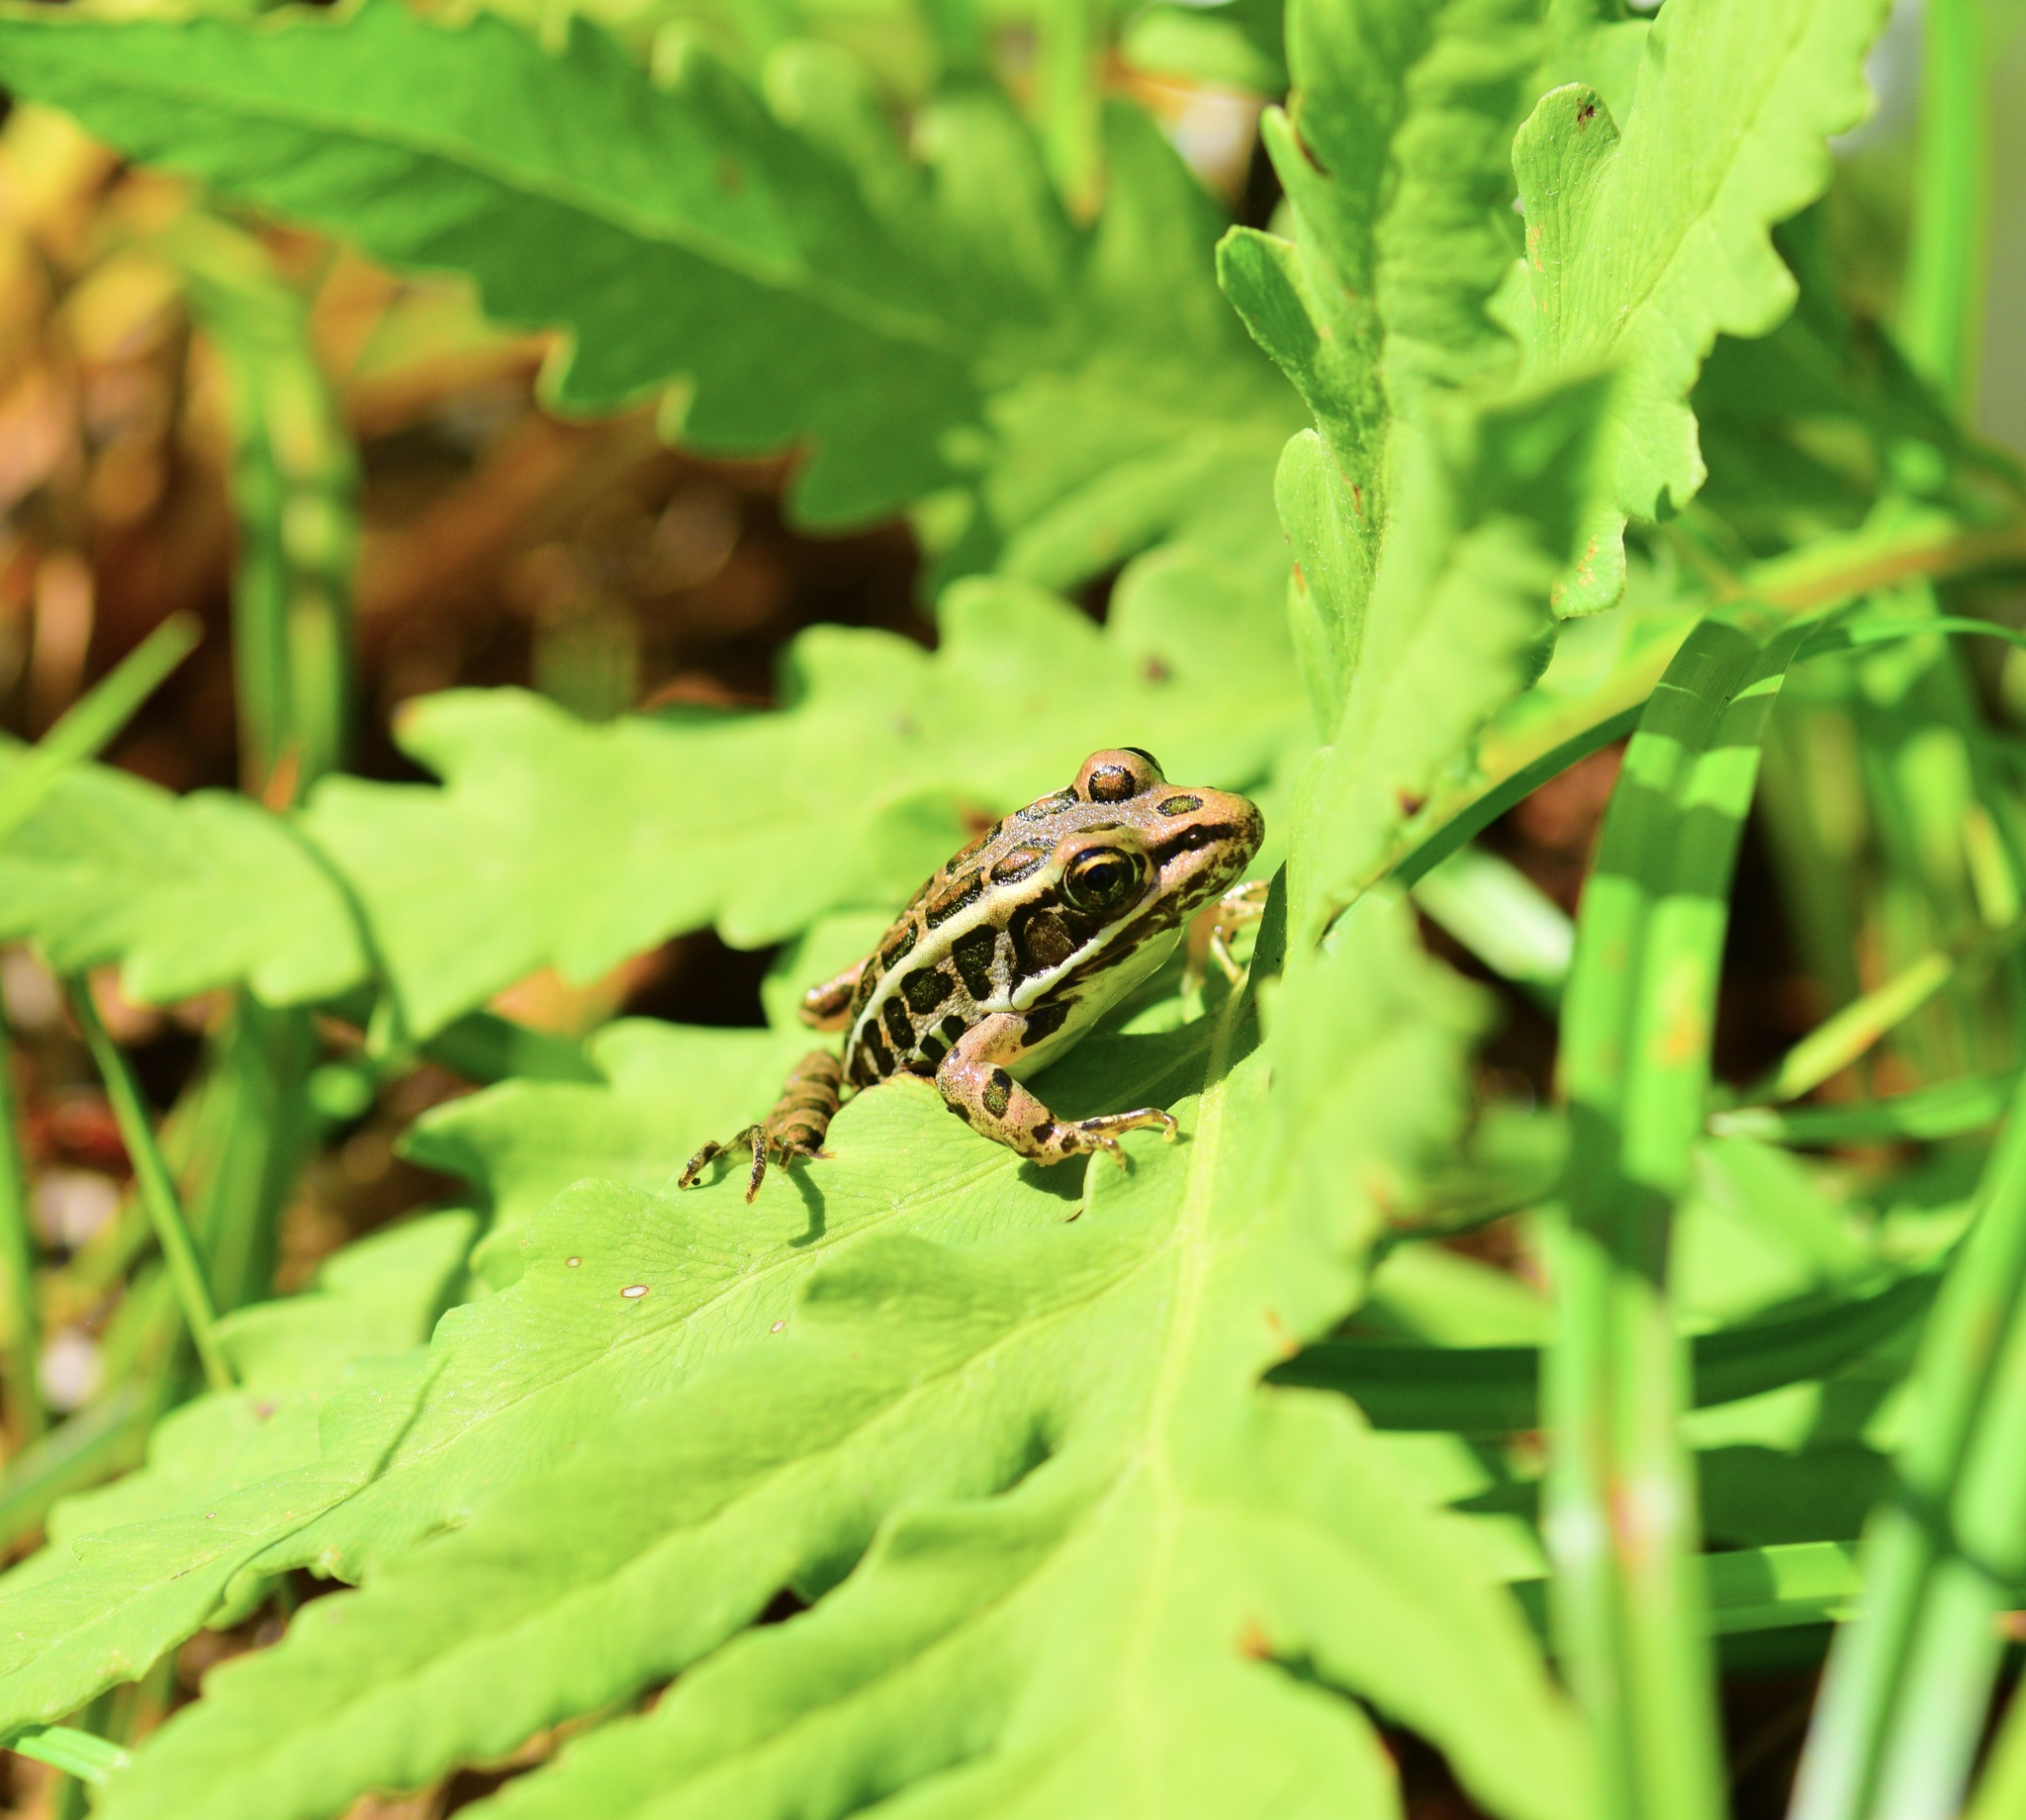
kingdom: Animalia
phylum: Chordata
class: Amphibia
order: Anura
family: Ranidae
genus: Lithobates
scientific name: Lithobates palustris
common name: Pickerel frog
